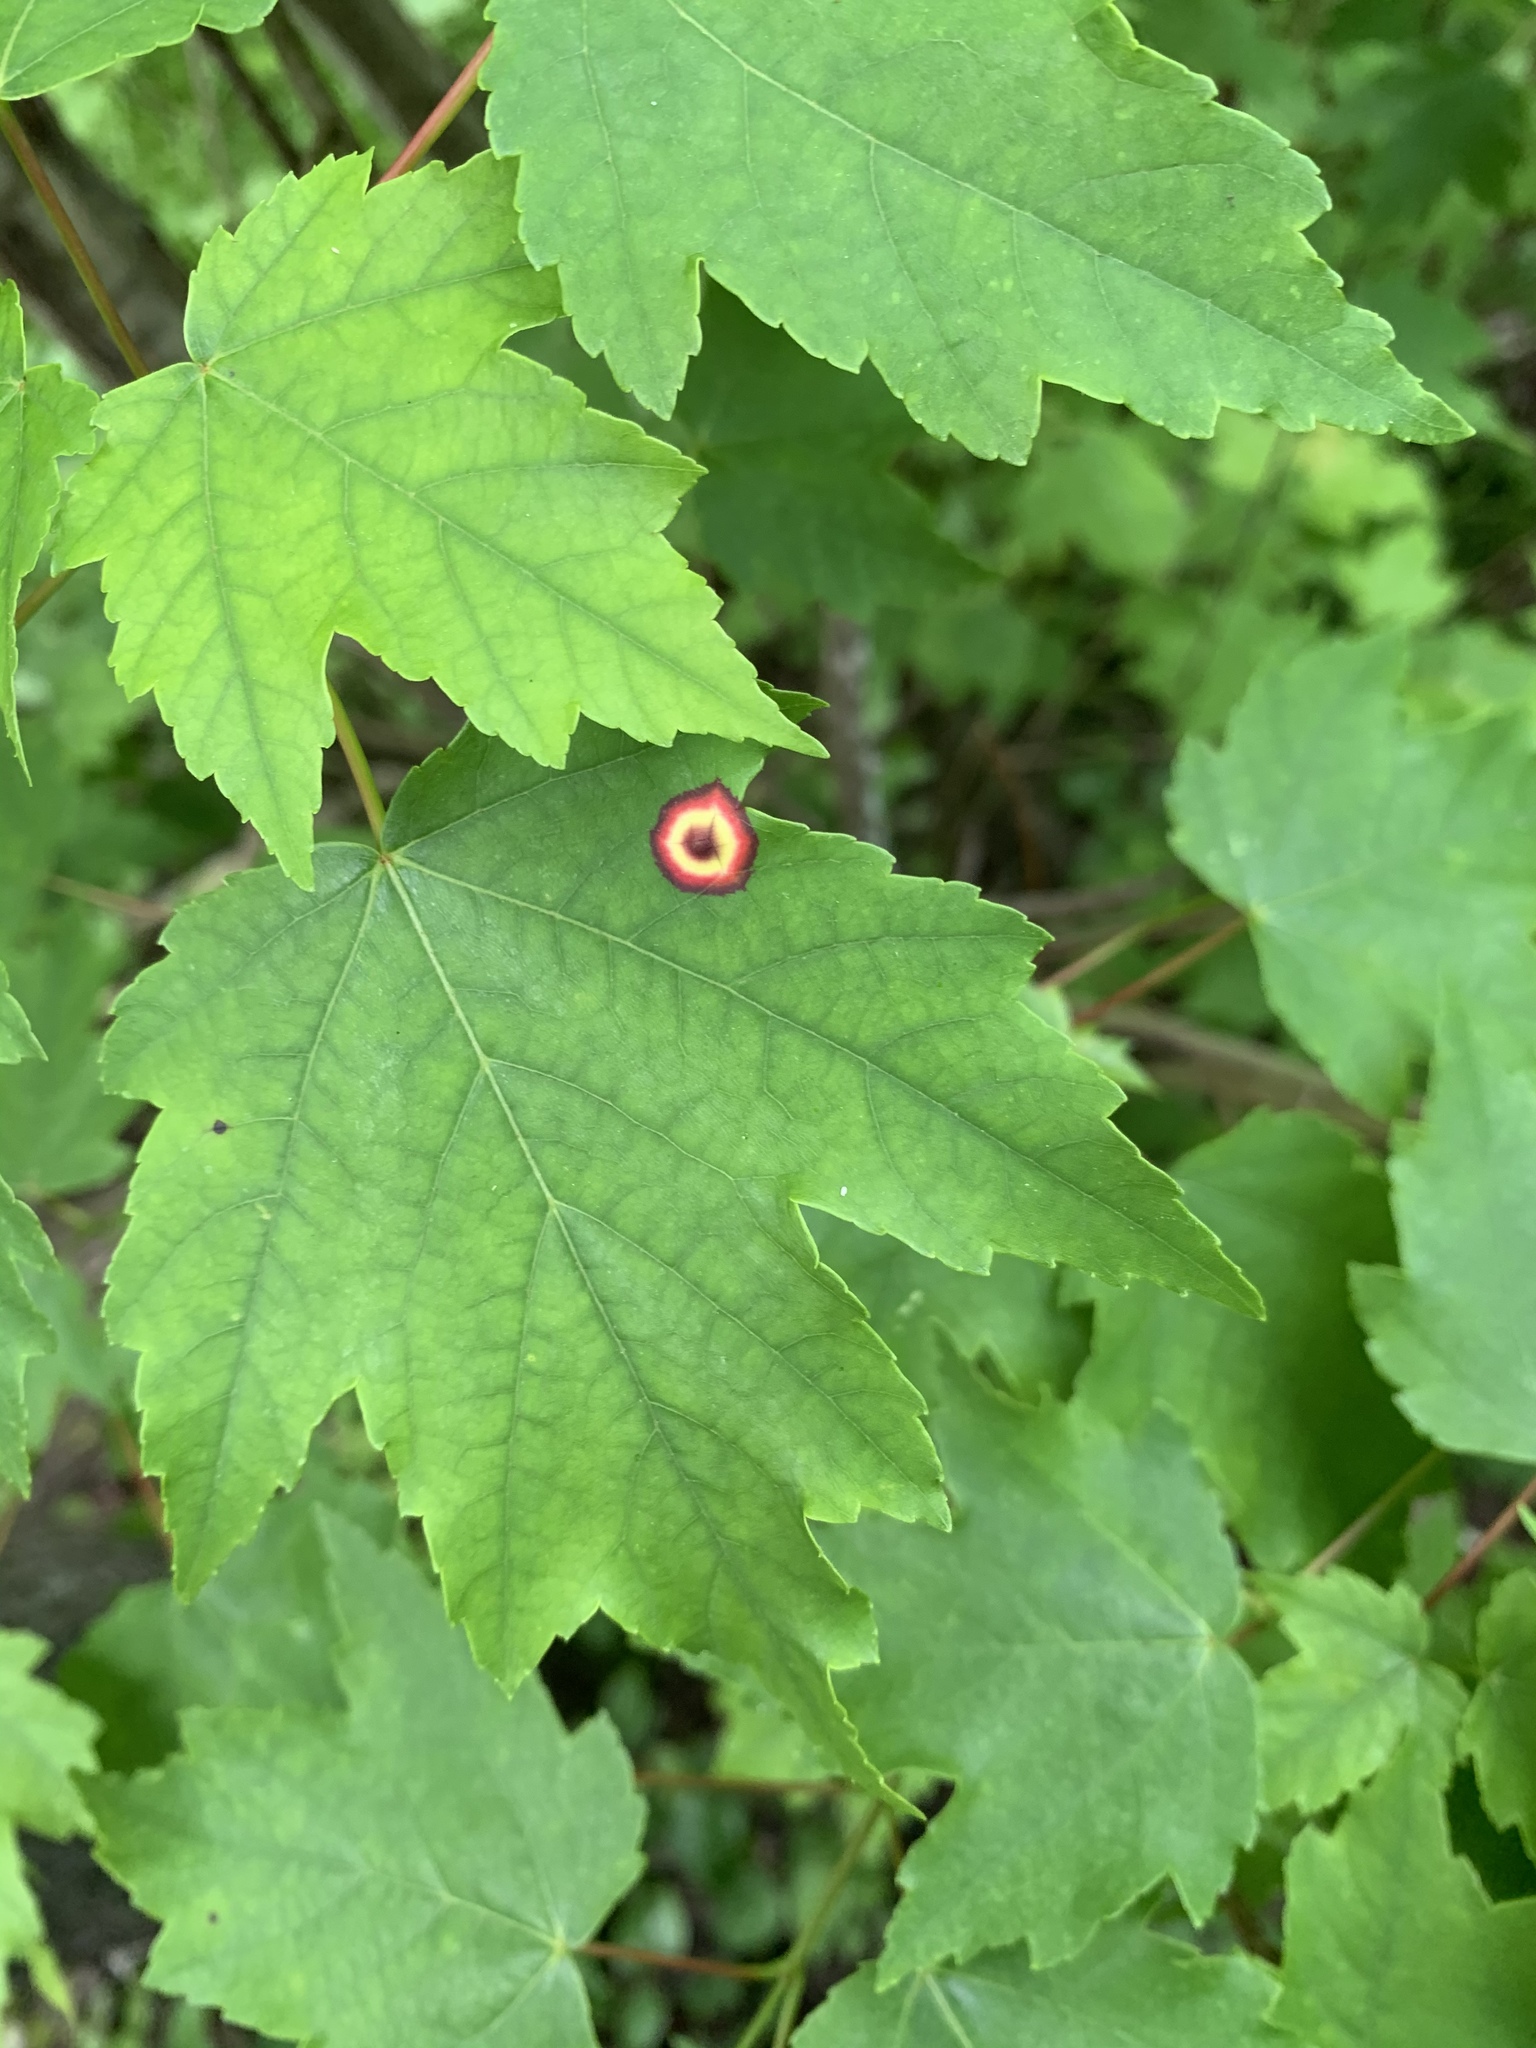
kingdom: Animalia
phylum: Arthropoda
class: Insecta
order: Diptera
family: Cecidomyiidae
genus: Acericecis
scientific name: Acericecis ocellaris
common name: Ocellate gall midge
